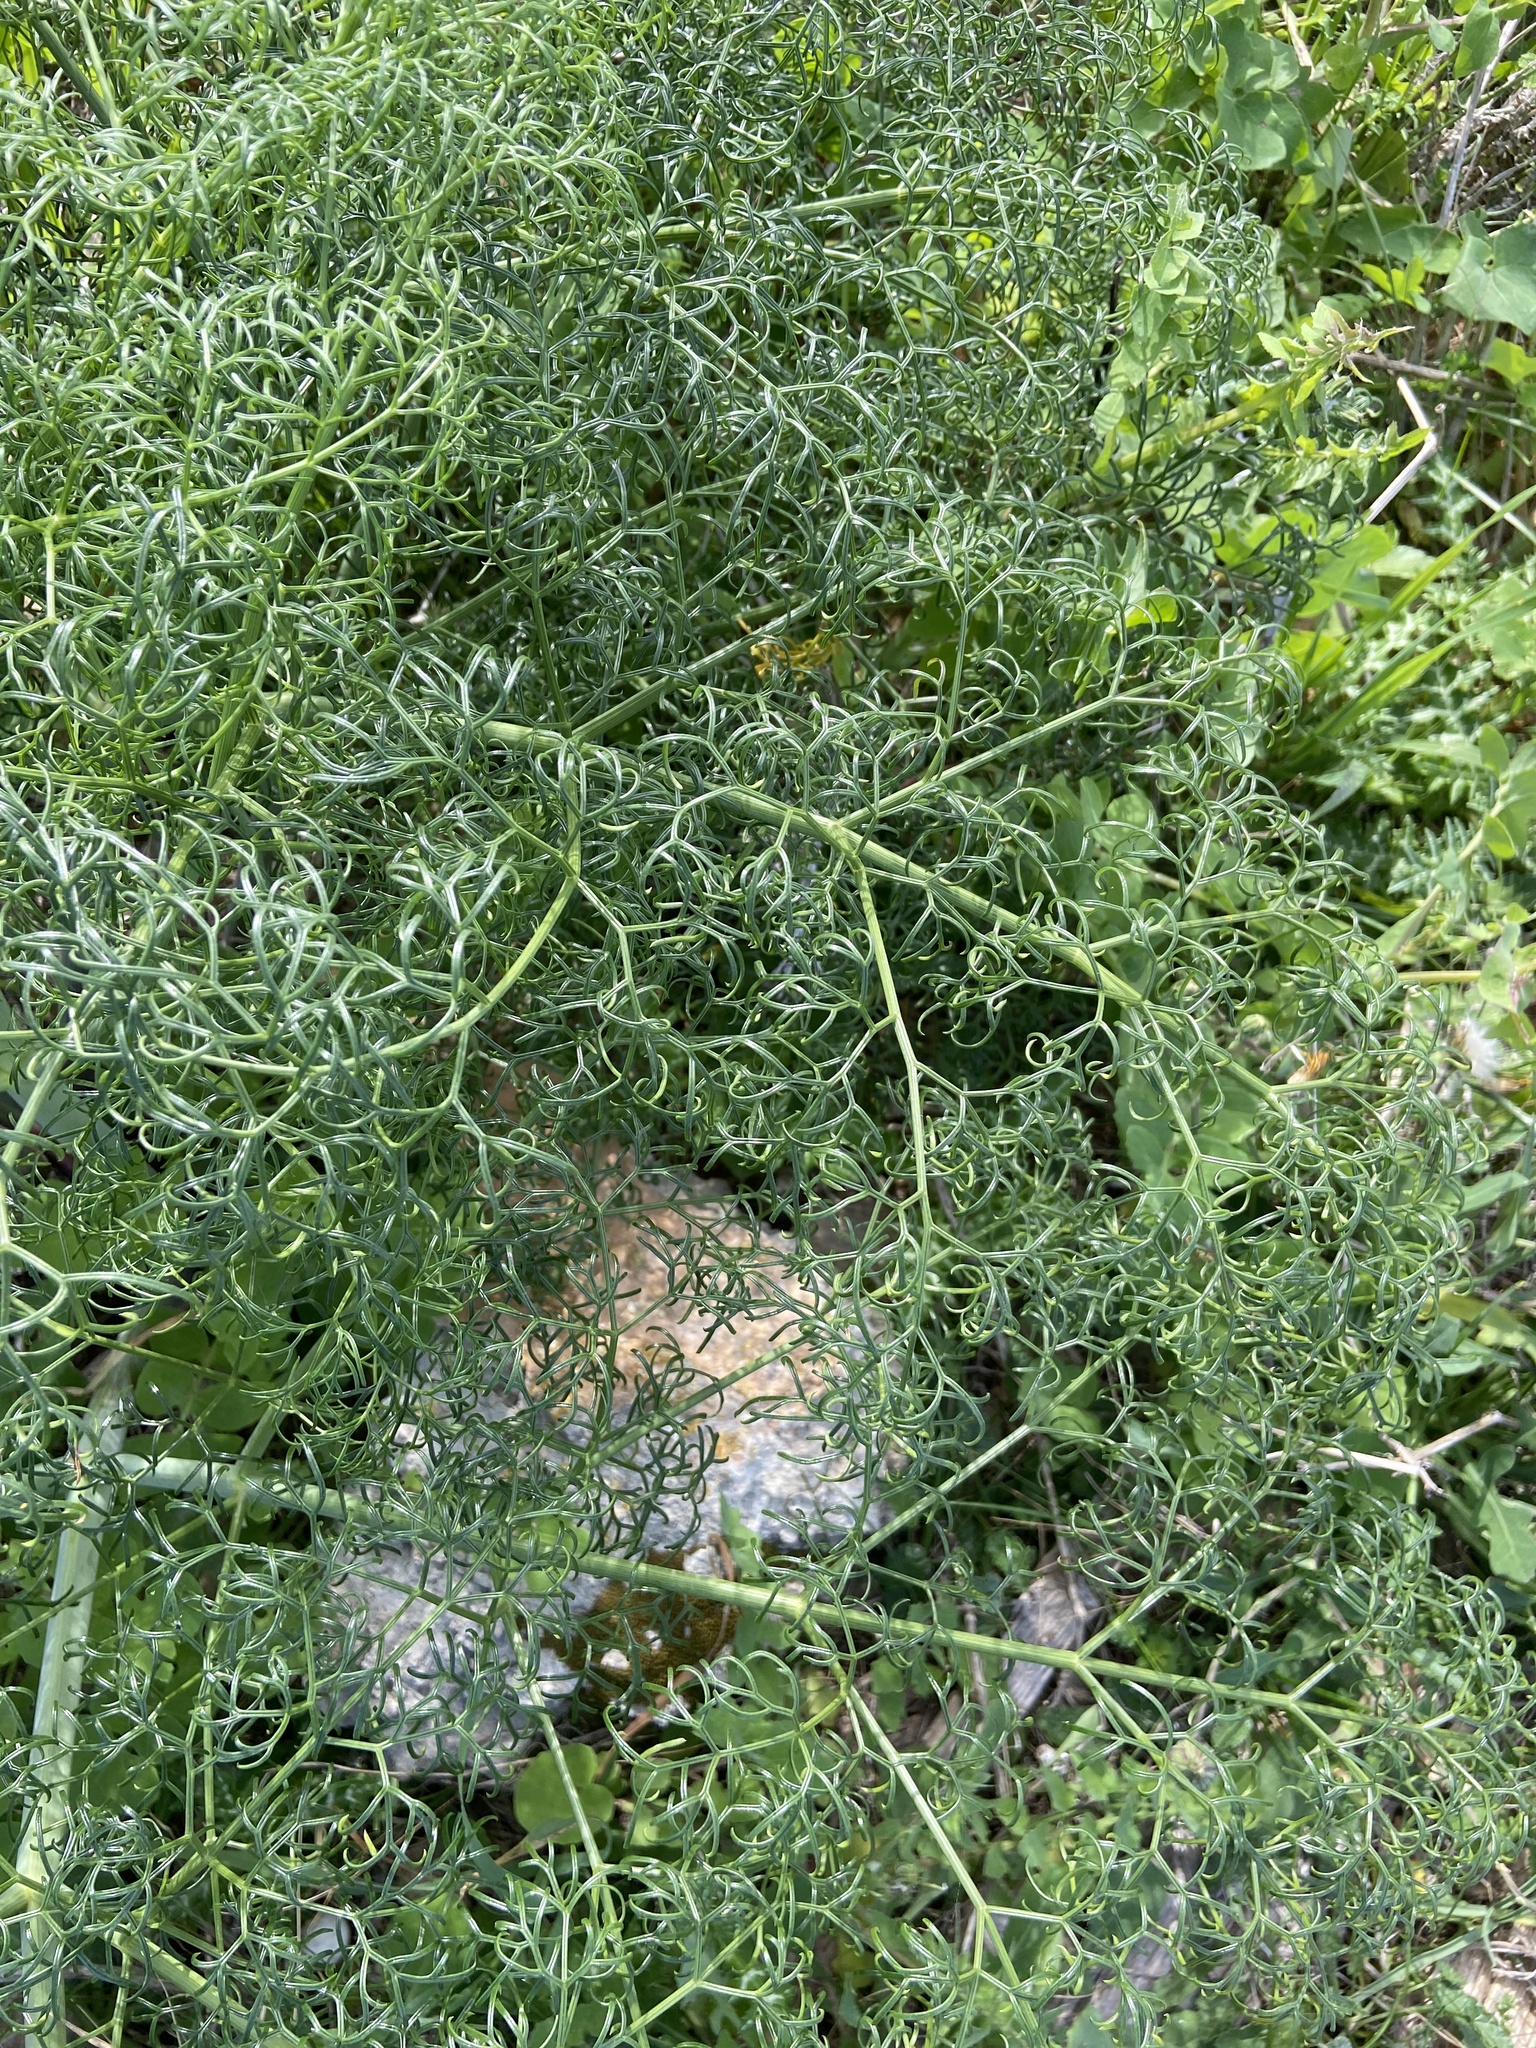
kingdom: Plantae
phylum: Tracheophyta
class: Magnoliopsida
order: Apiales
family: Apiaceae
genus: Ferula
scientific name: Ferula melitensis
